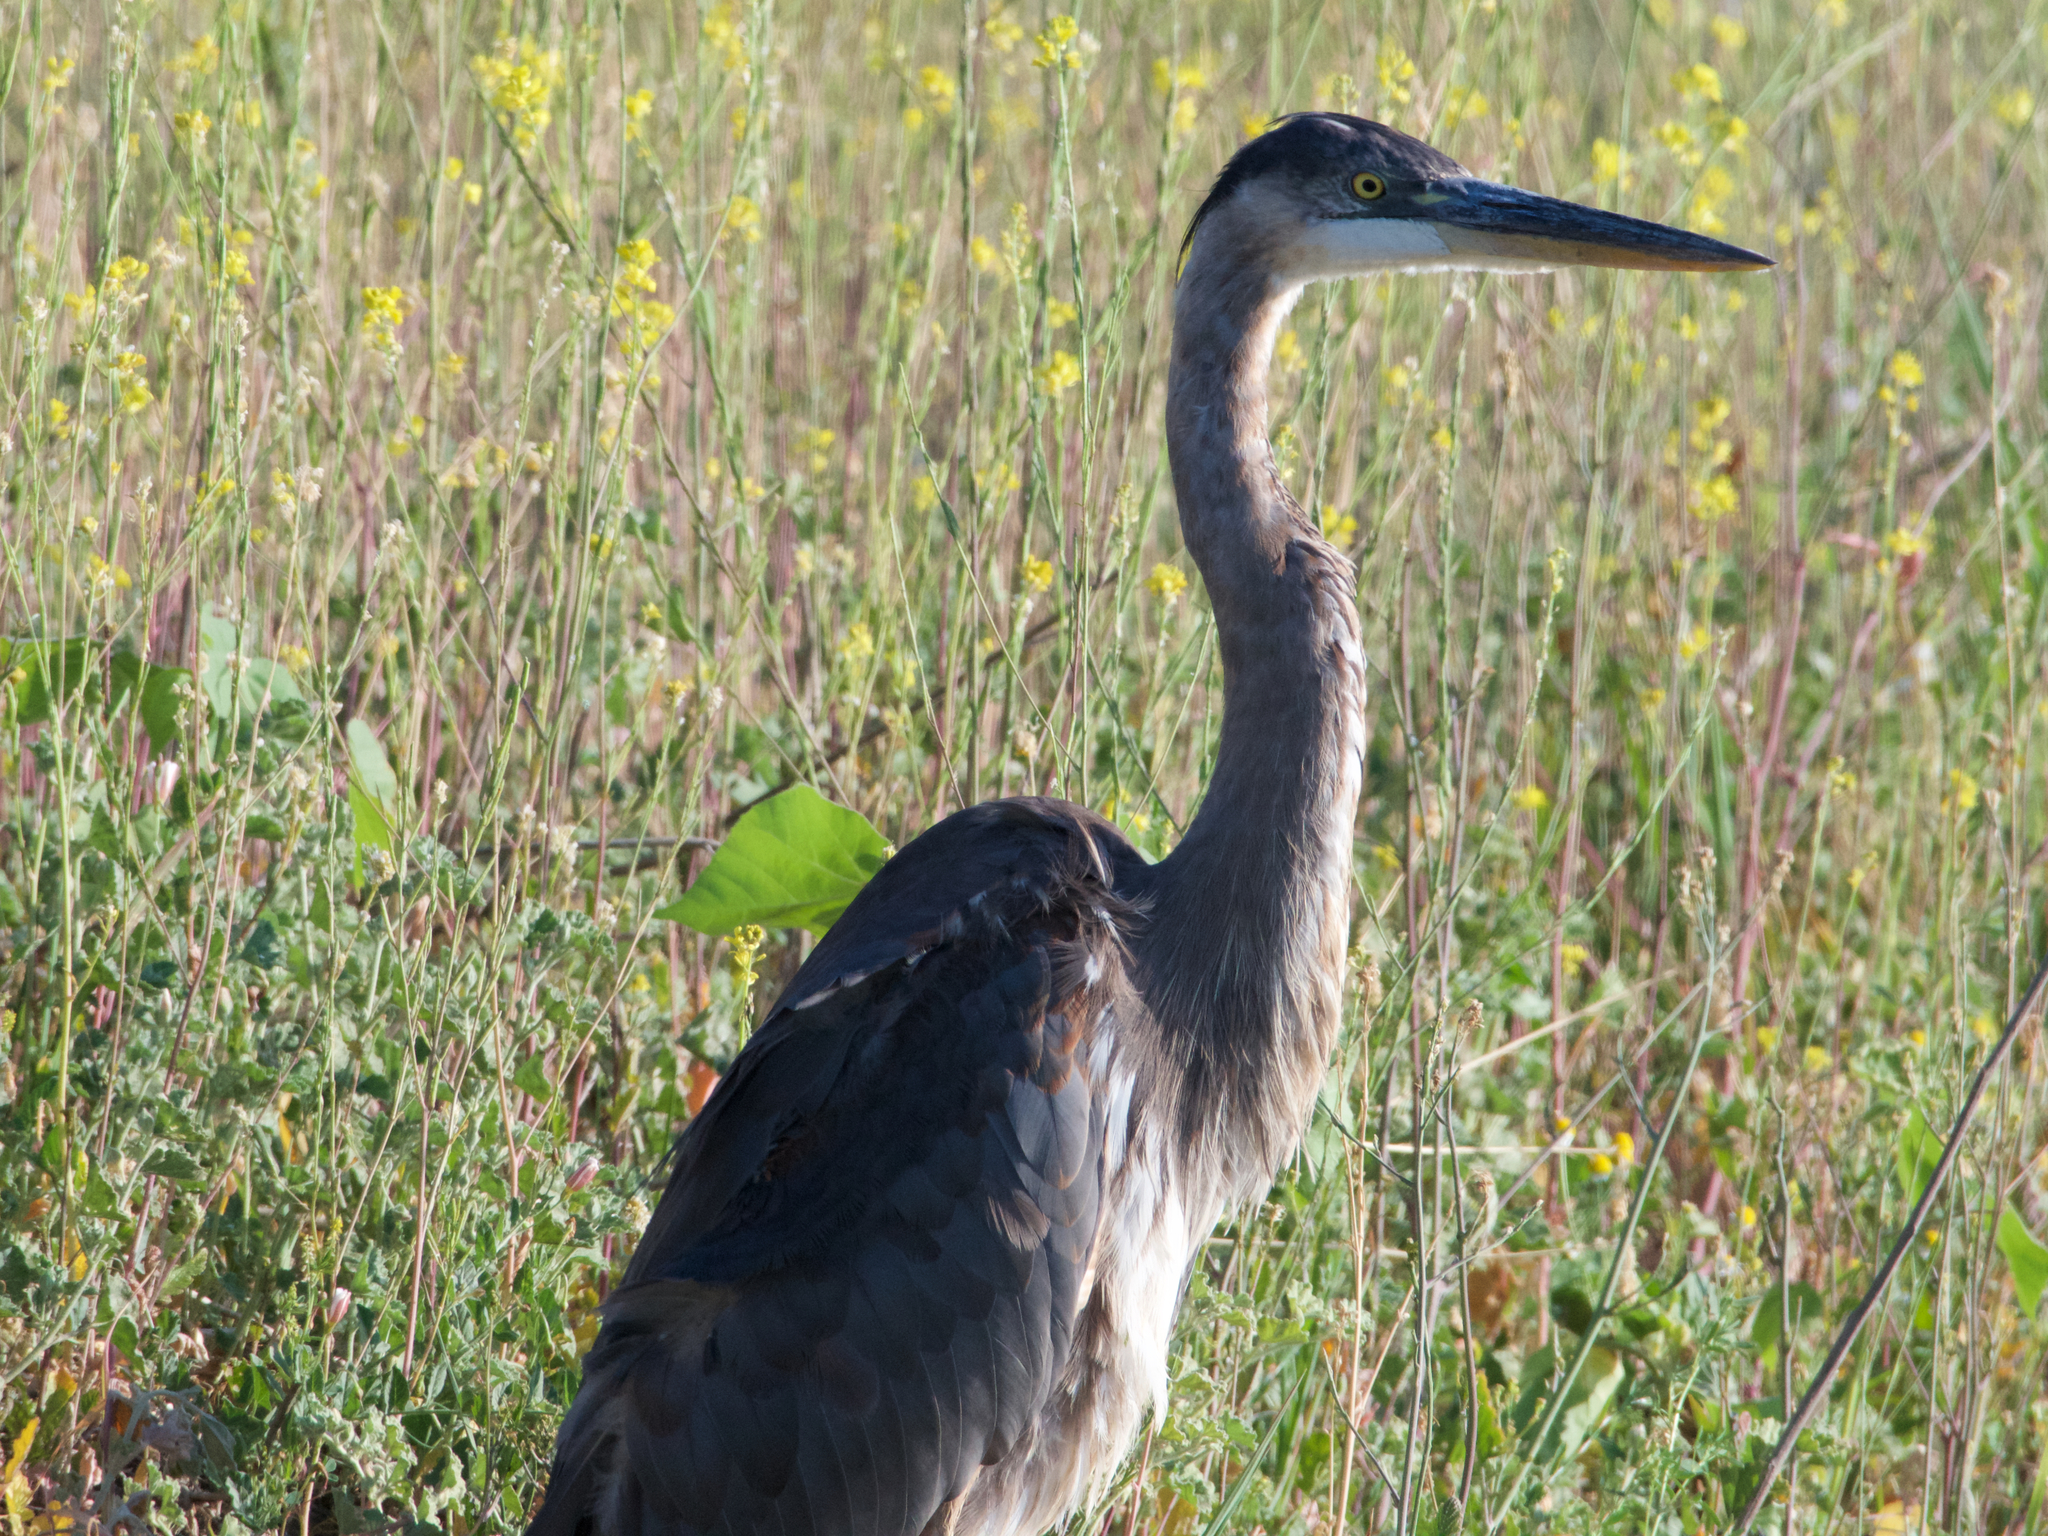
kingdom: Animalia
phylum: Chordata
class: Aves
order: Pelecaniformes
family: Ardeidae
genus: Ardea
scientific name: Ardea herodias
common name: Great blue heron
